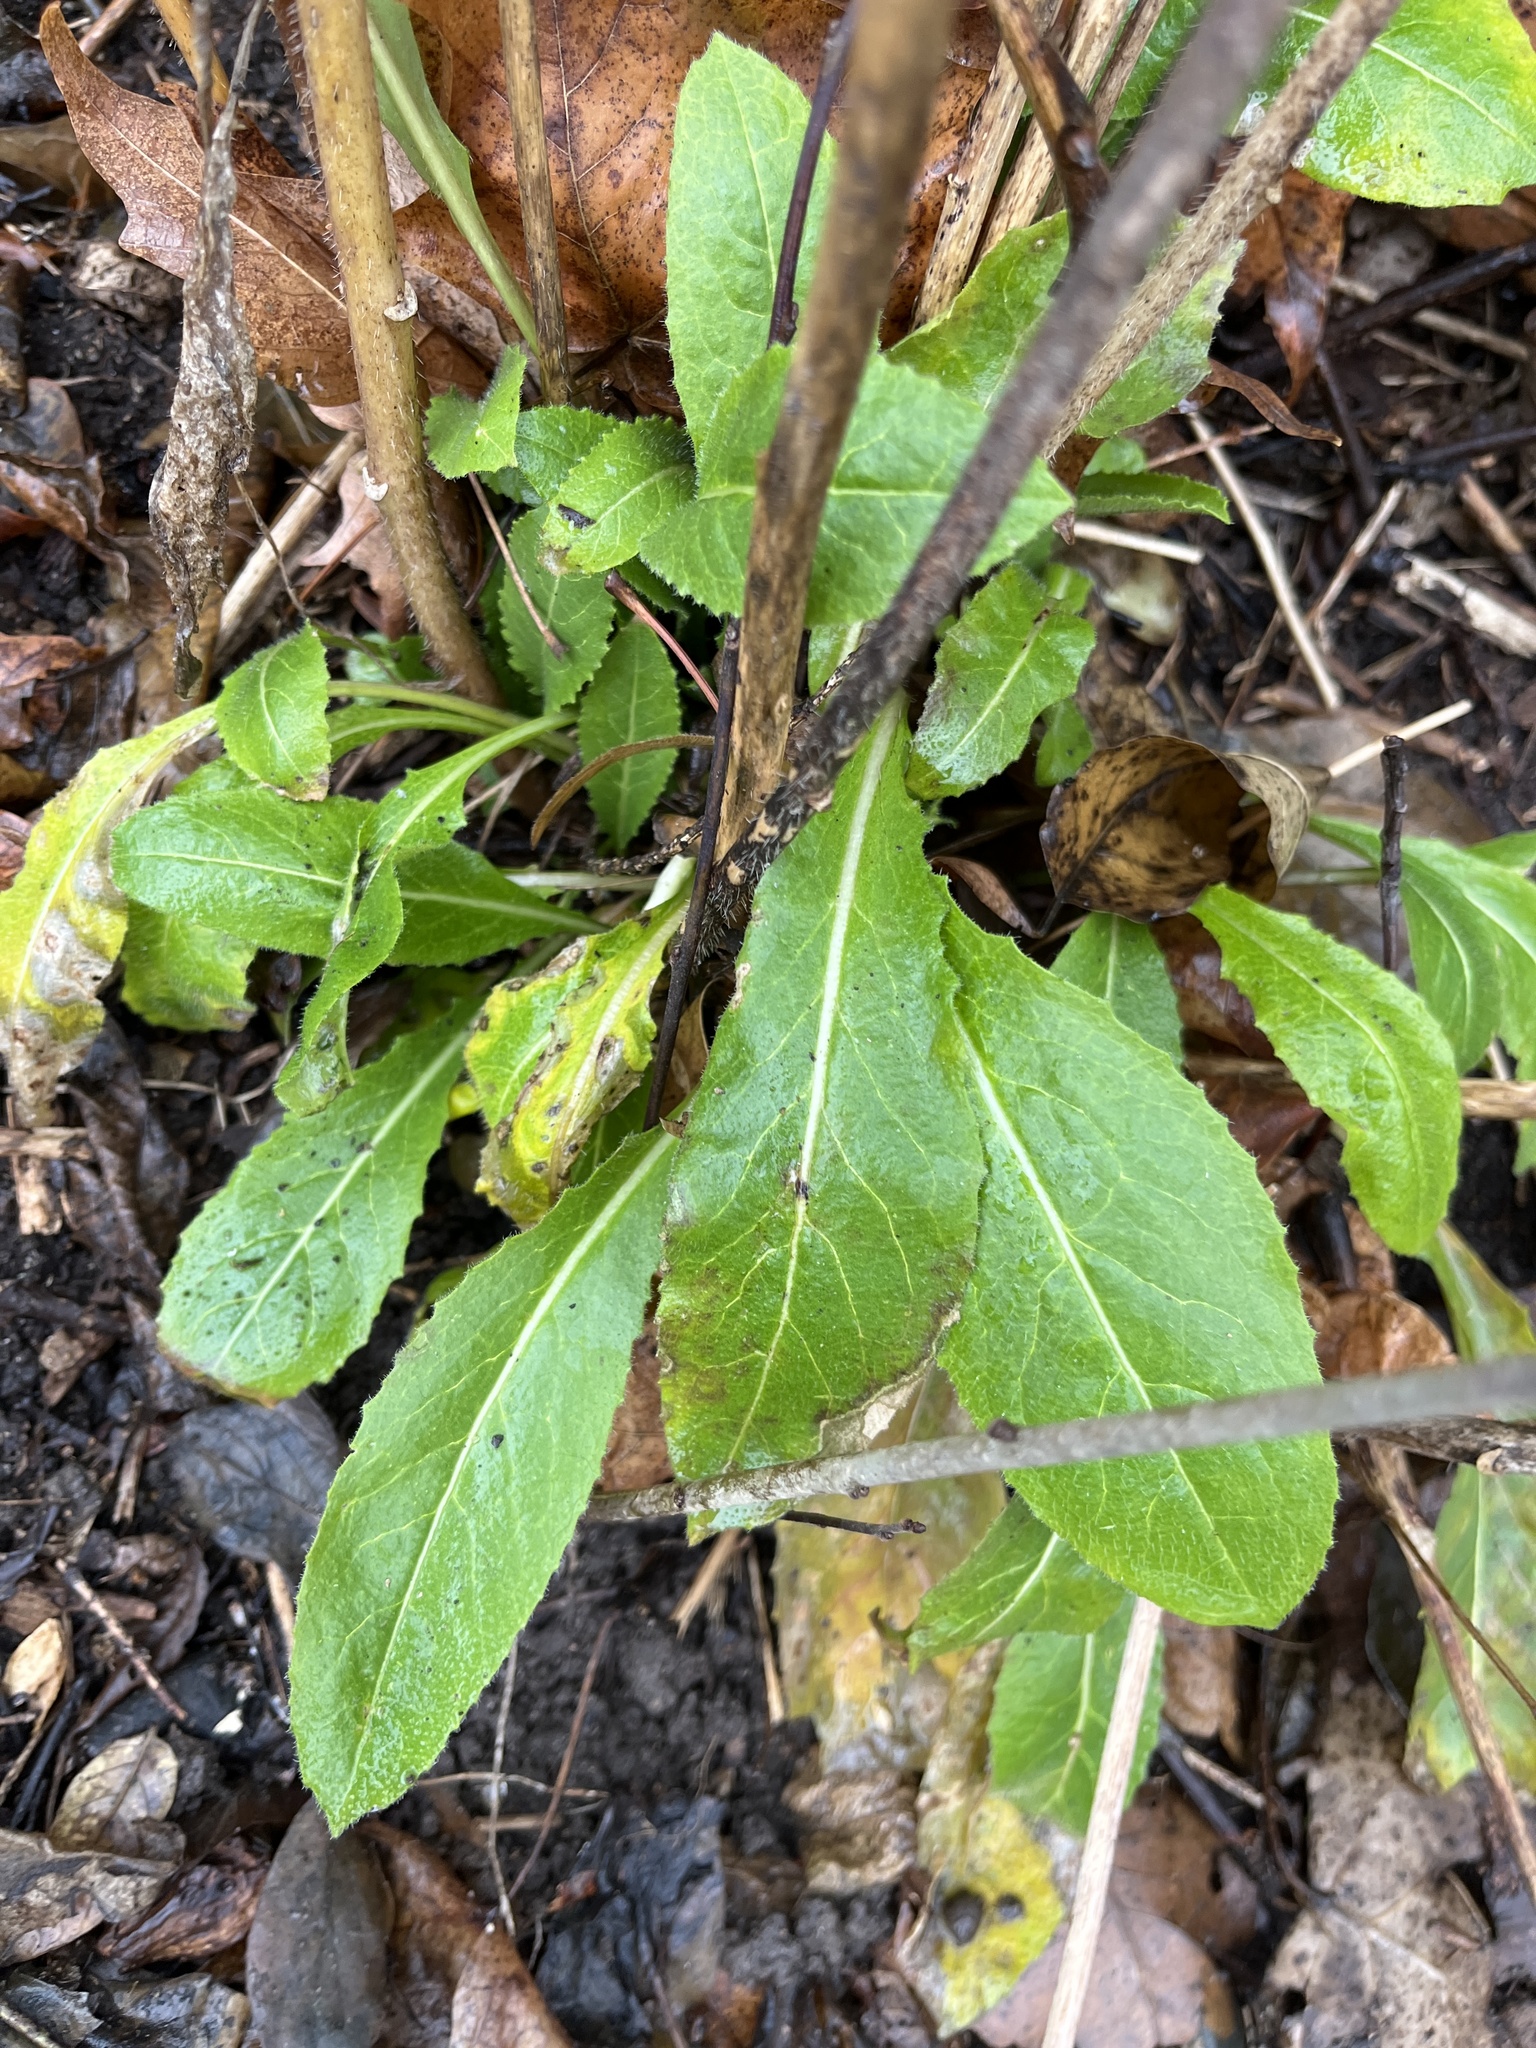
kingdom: Plantae
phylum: Tracheophyta
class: Magnoliopsida
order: Brassicales
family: Brassicaceae
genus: Hesperis
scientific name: Hesperis matronalis
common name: Dame's-violet
